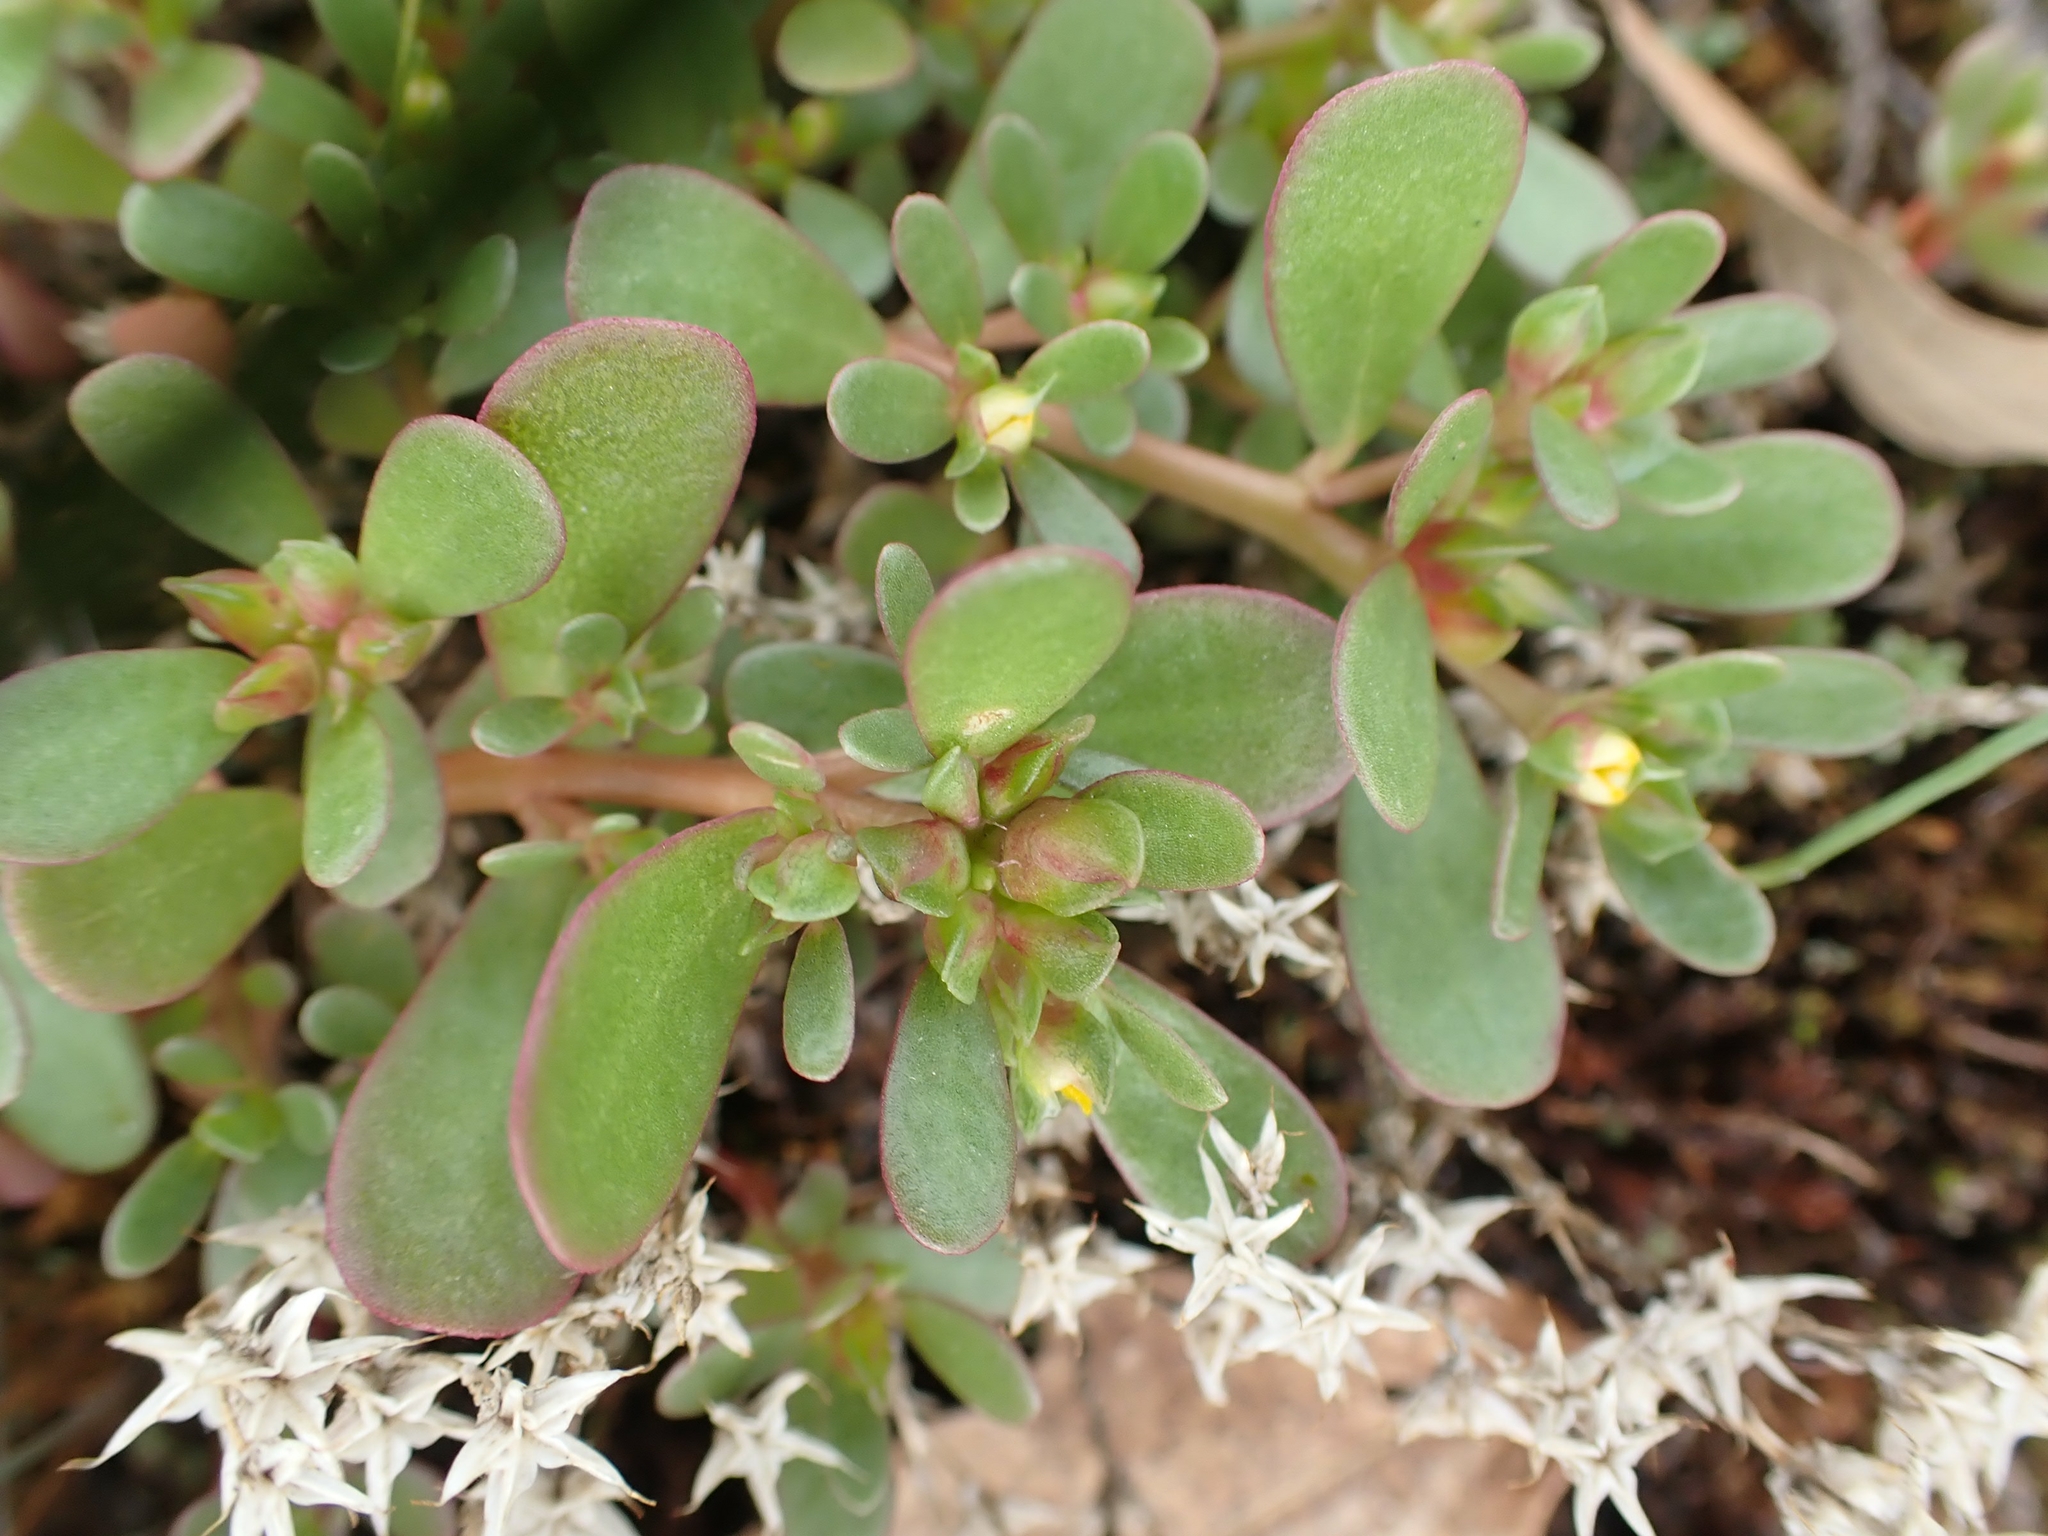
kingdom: Plantae
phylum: Tracheophyta
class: Magnoliopsida
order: Caryophyllales
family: Portulacaceae
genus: Portulaca
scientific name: Portulaca oleracea
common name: Common purslane
